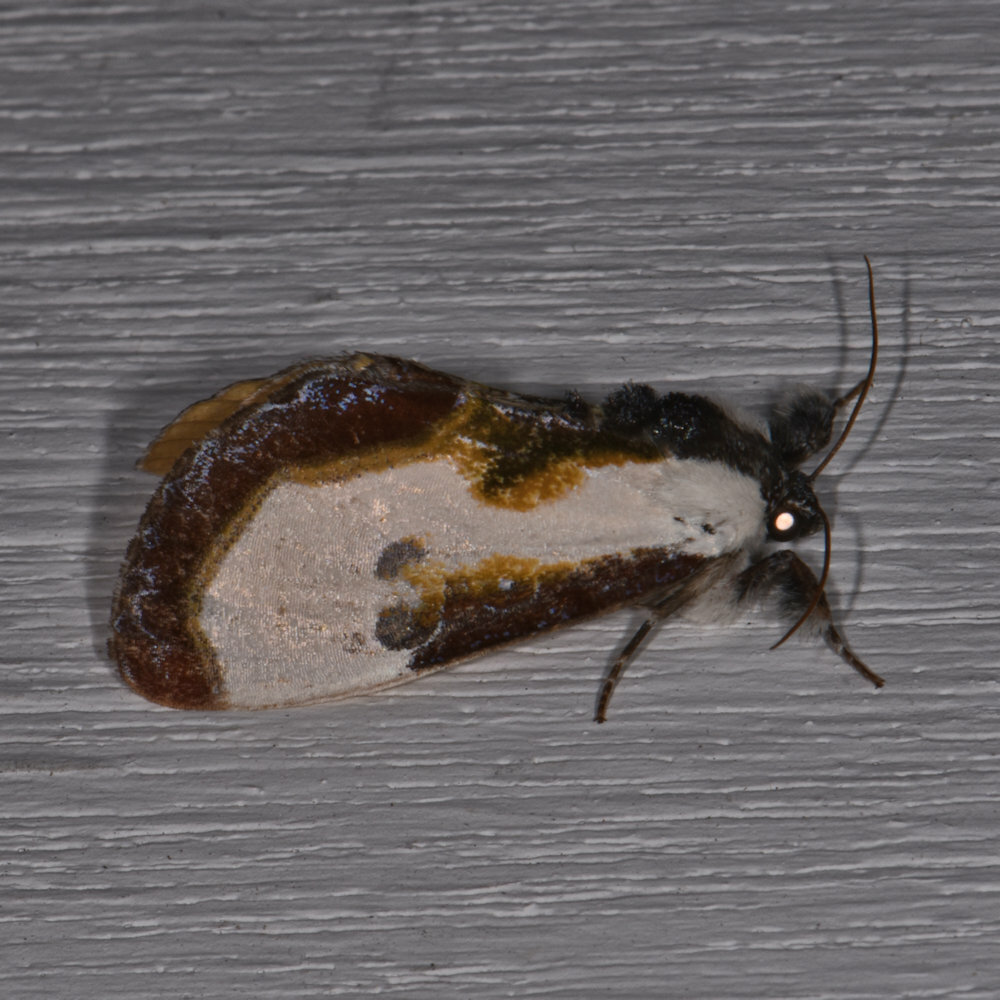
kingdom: Animalia
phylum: Arthropoda
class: Insecta
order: Lepidoptera
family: Noctuidae
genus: Eudryas
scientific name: Eudryas grata
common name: Beautiful wood-nymph
